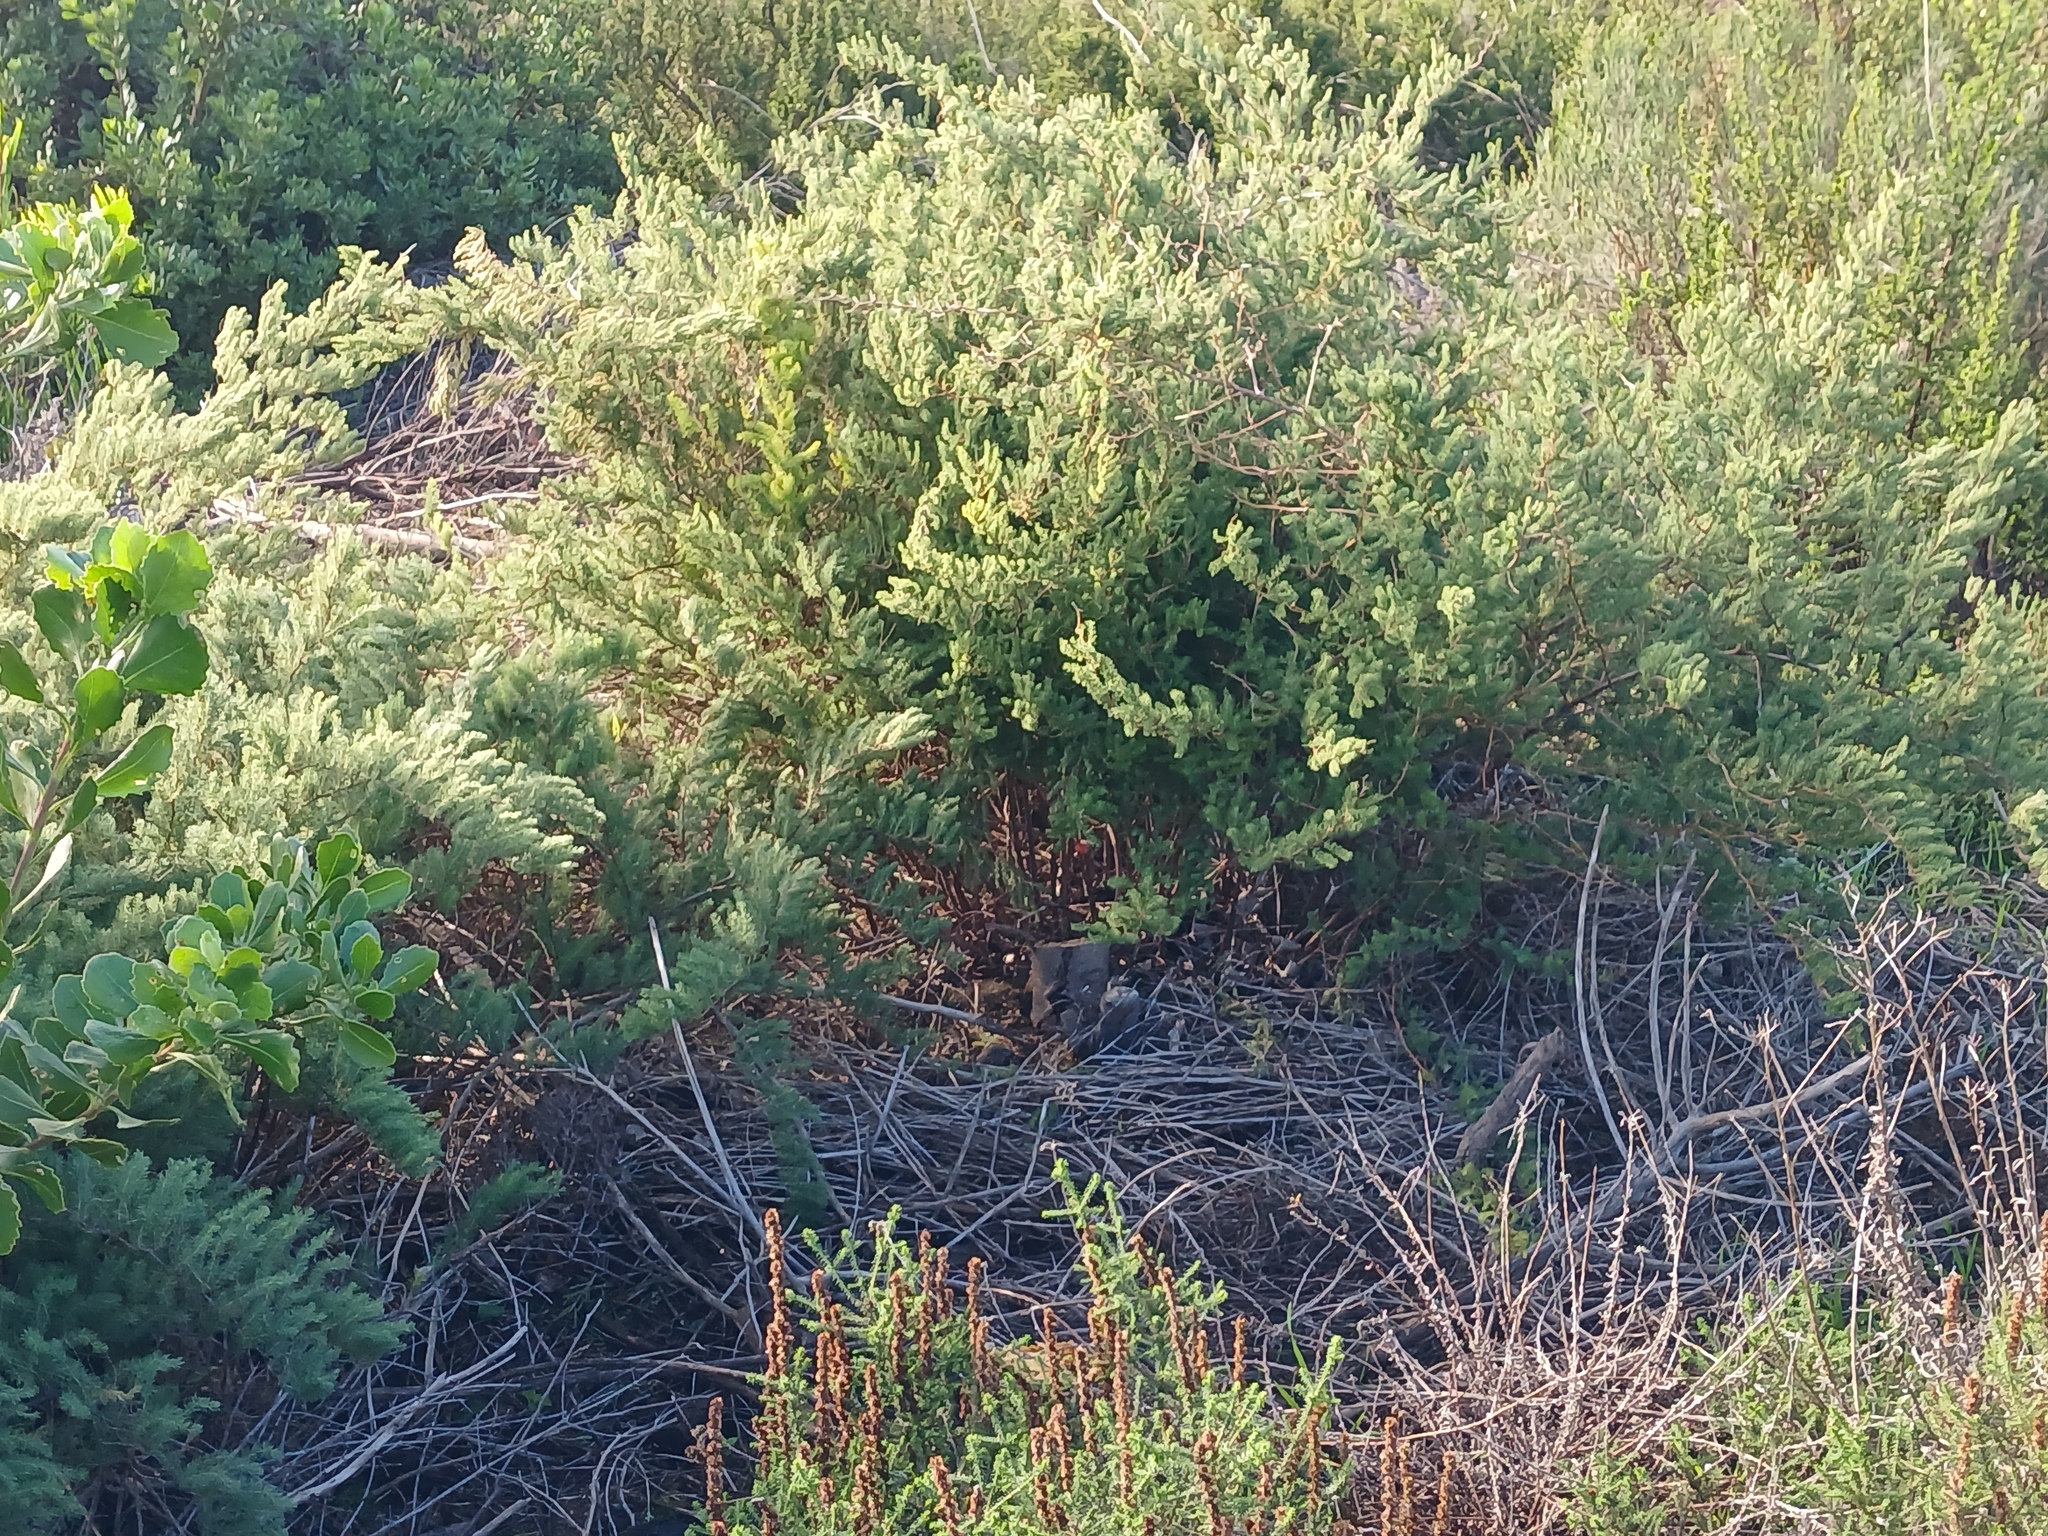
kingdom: Plantae
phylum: Tracheophyta
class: Liliopsida
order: Asparagales
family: Asparagaceae
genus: Asparagus
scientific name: Asparagus rubicundus
